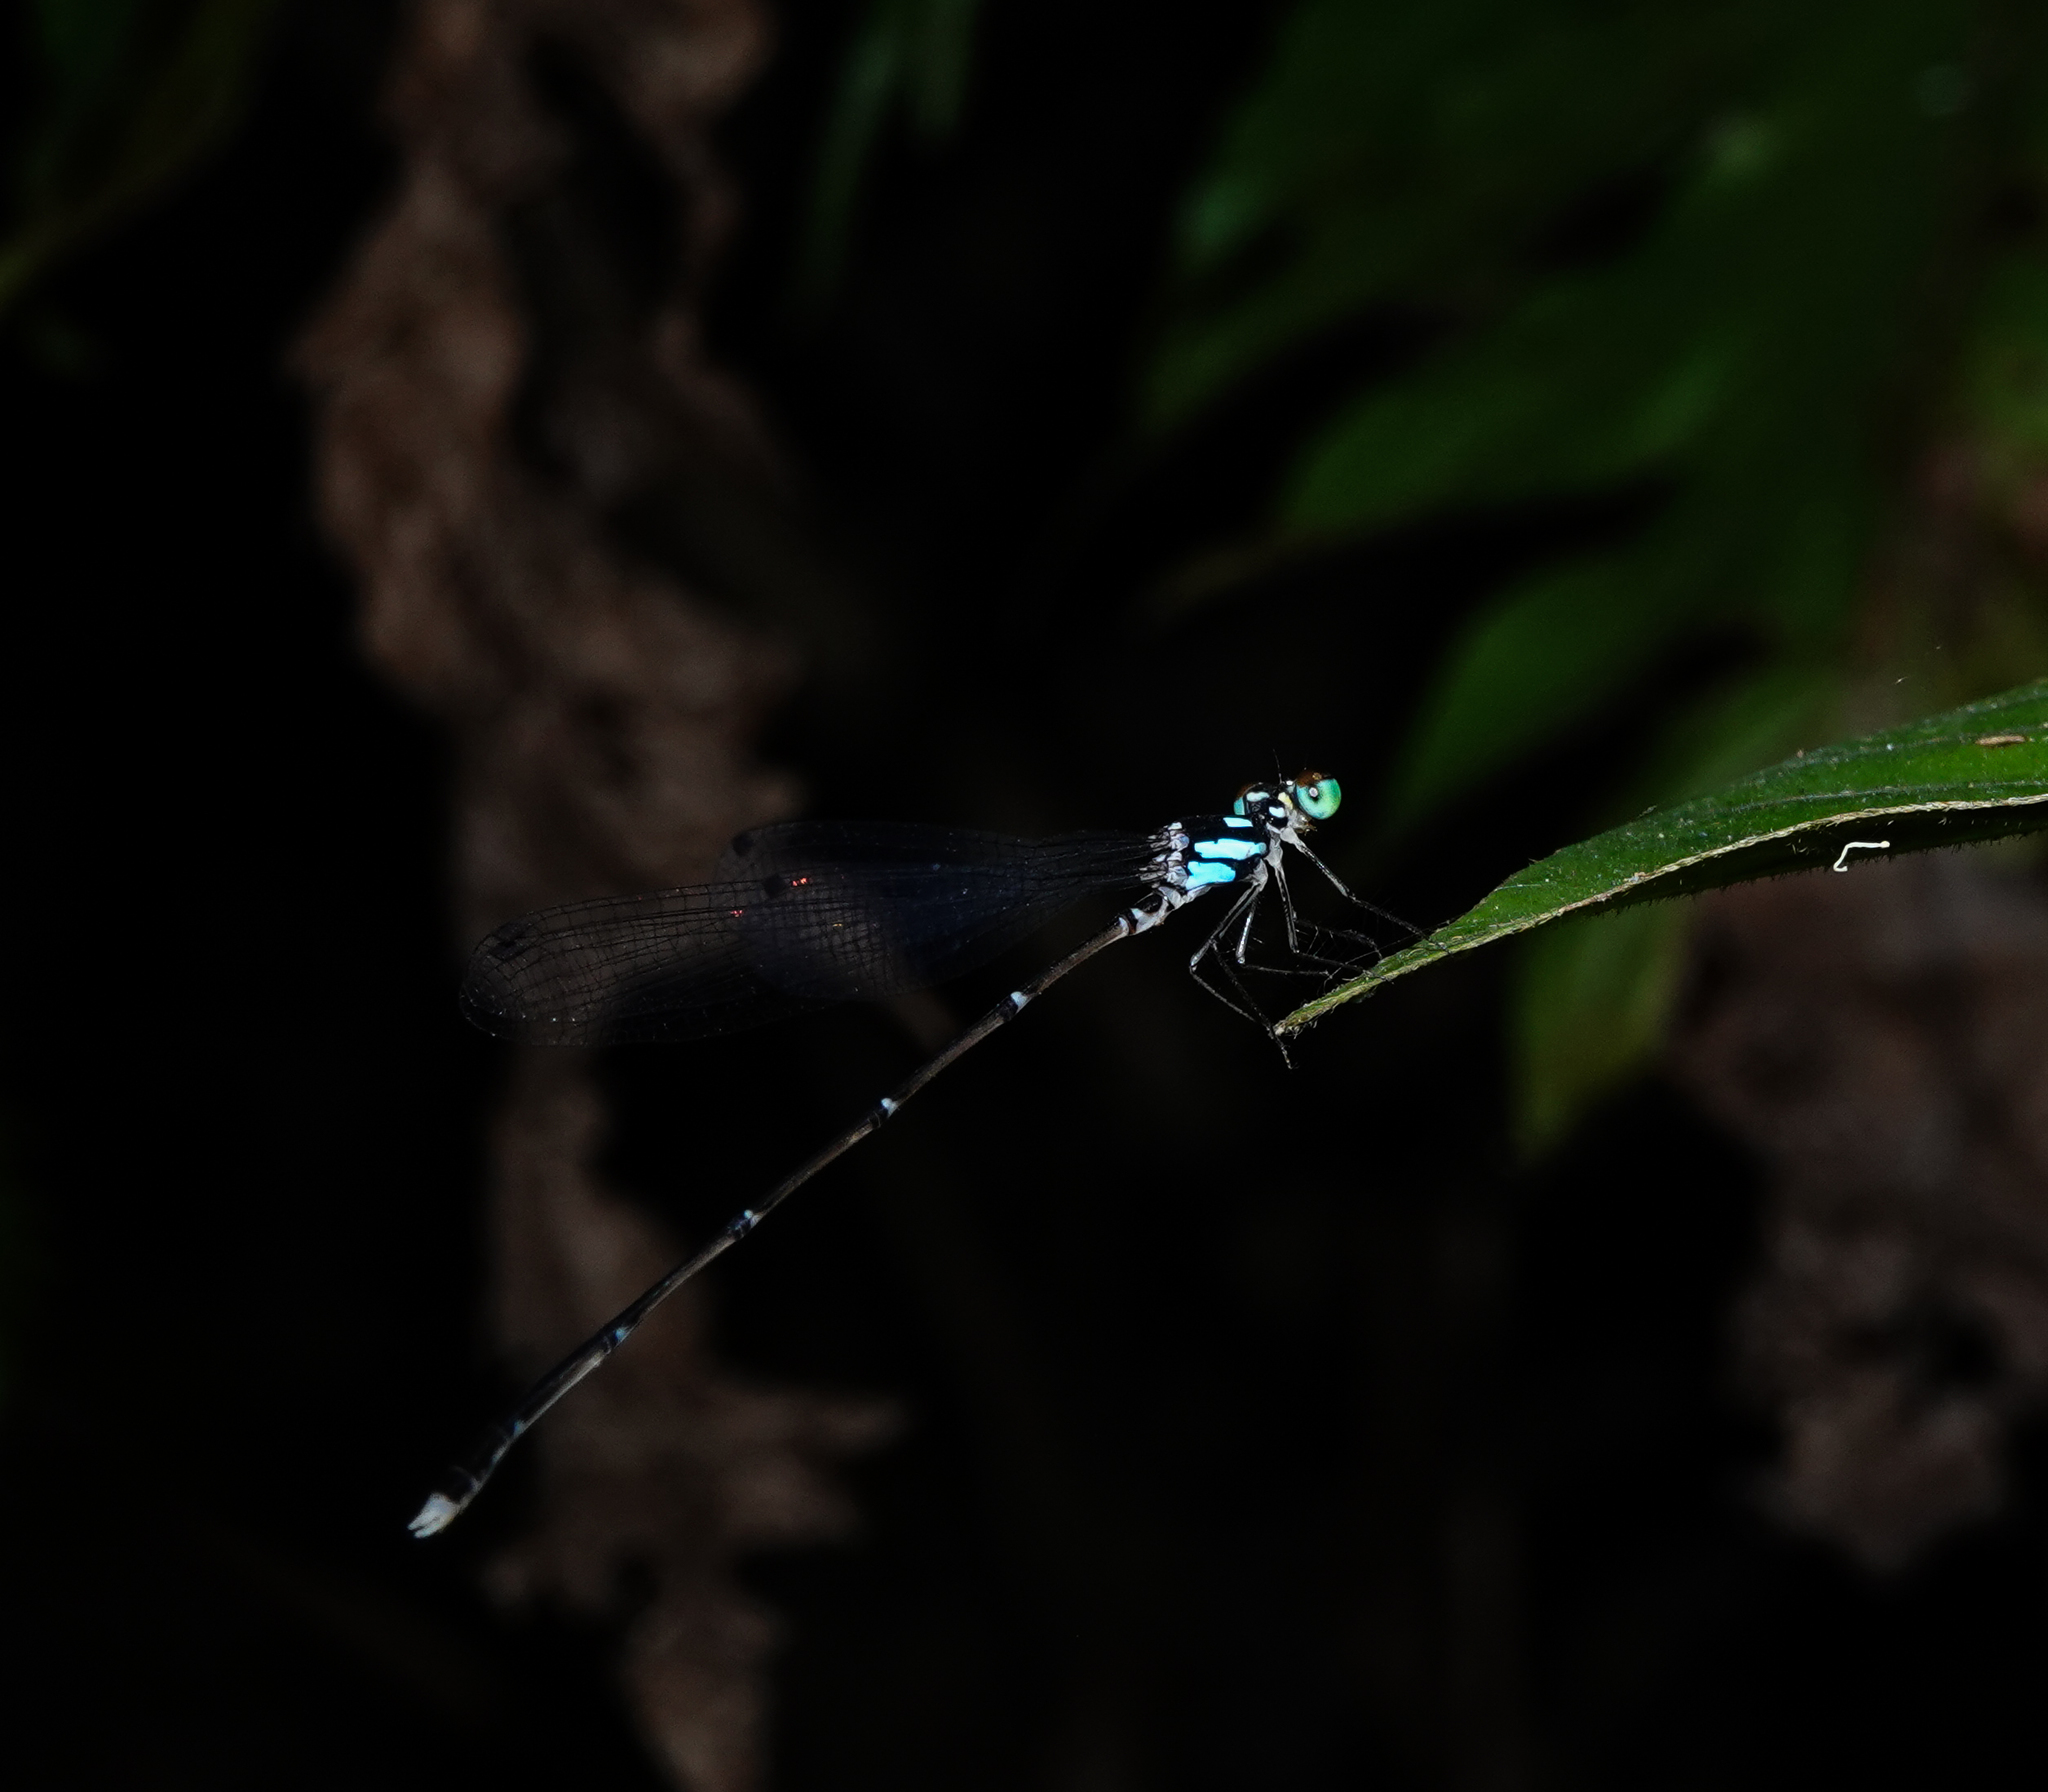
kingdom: Animalia
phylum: Arthropoda
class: Insecta
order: Odonata
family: Platycnemididae
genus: Coeliccia
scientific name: Coeliccia bimaculata
